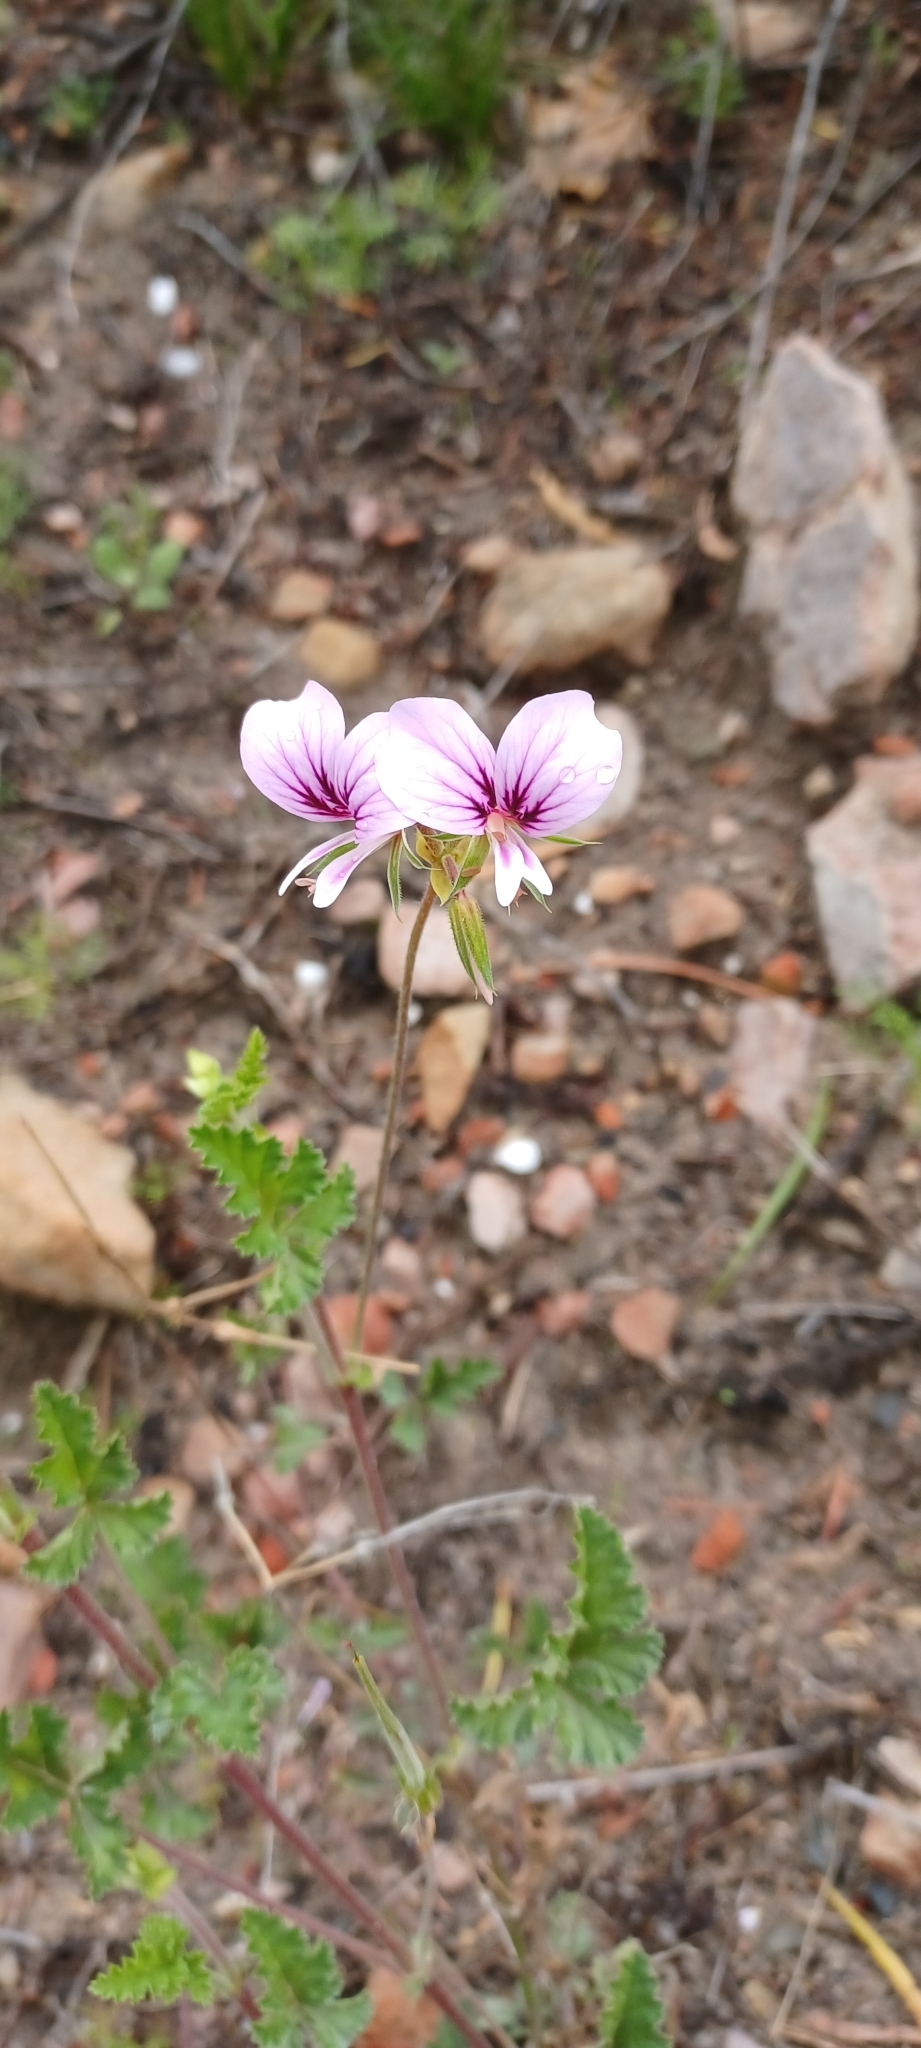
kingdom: Plantae
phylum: Tracheophyta
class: Magnoliopsida
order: Geraniales
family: Geraniaceae
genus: Pelargonium
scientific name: Pelargonium candicans
